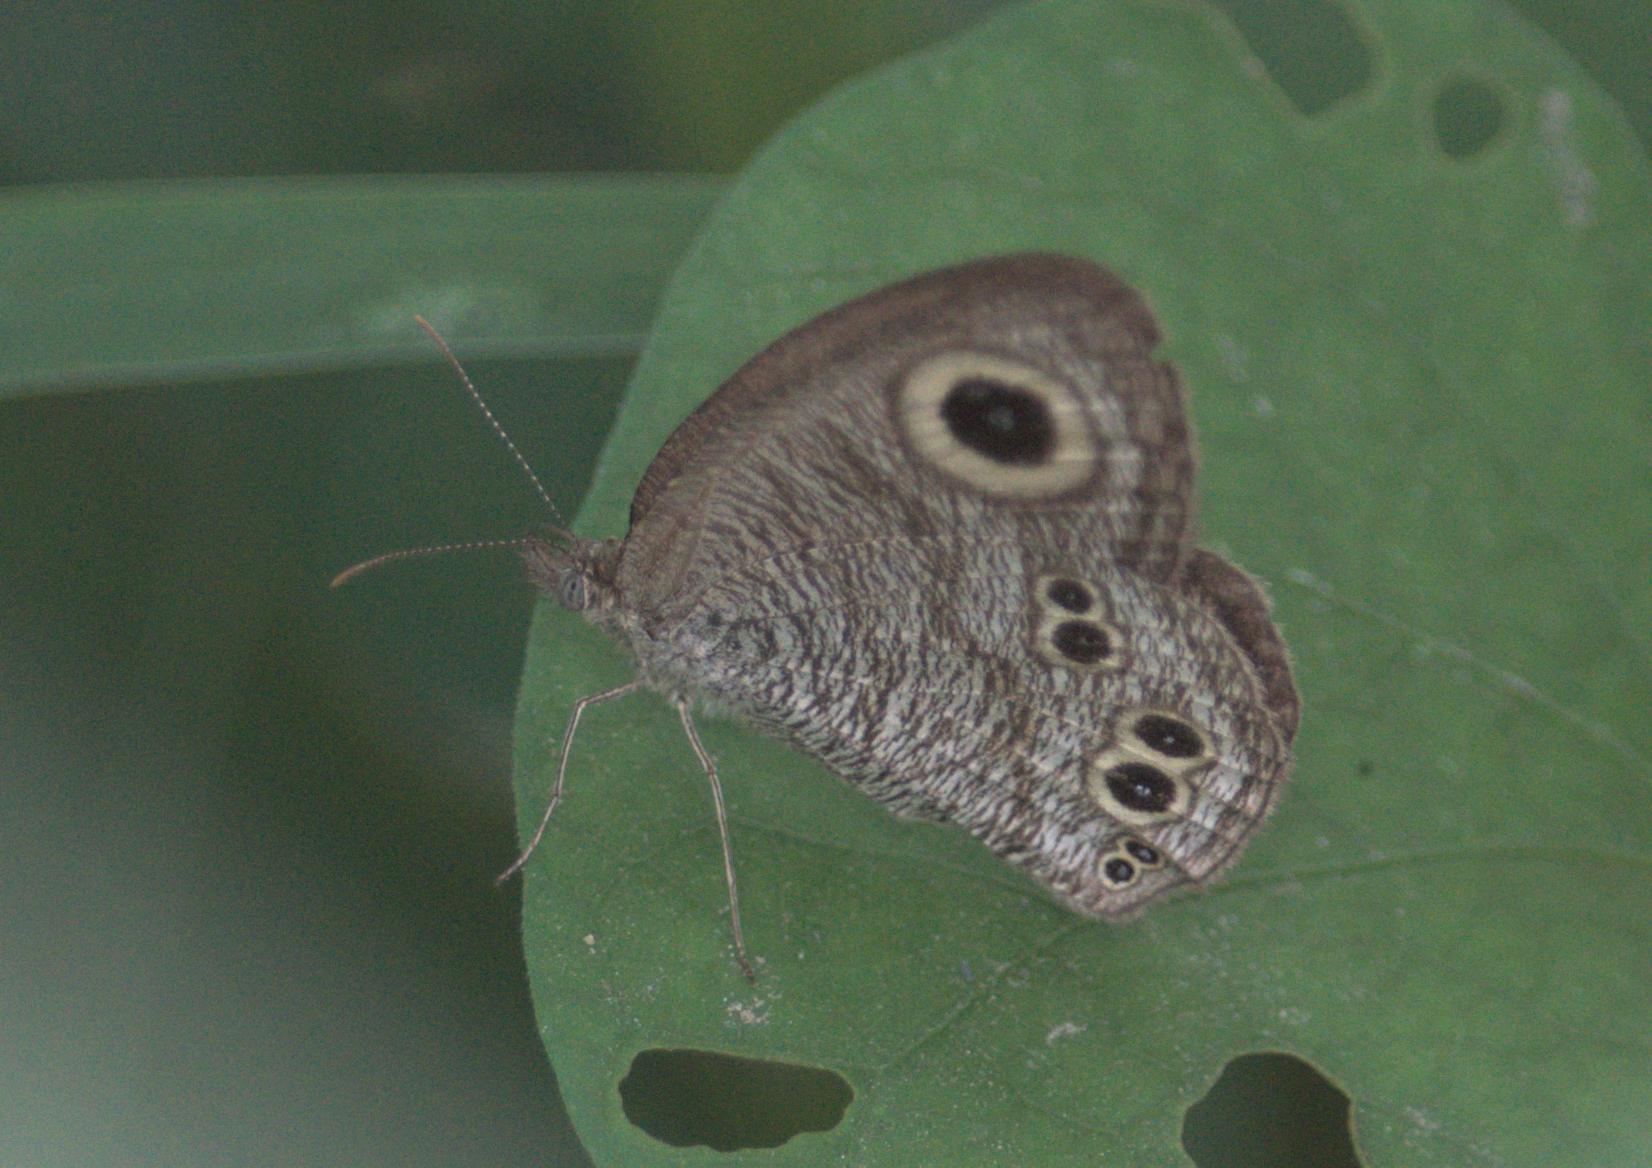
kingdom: Animalia
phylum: Arthropoda
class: Insecta
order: Lepidoptera
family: Nymphalidae
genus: Ypthima
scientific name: Ypthima baldus
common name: Common five-ring
